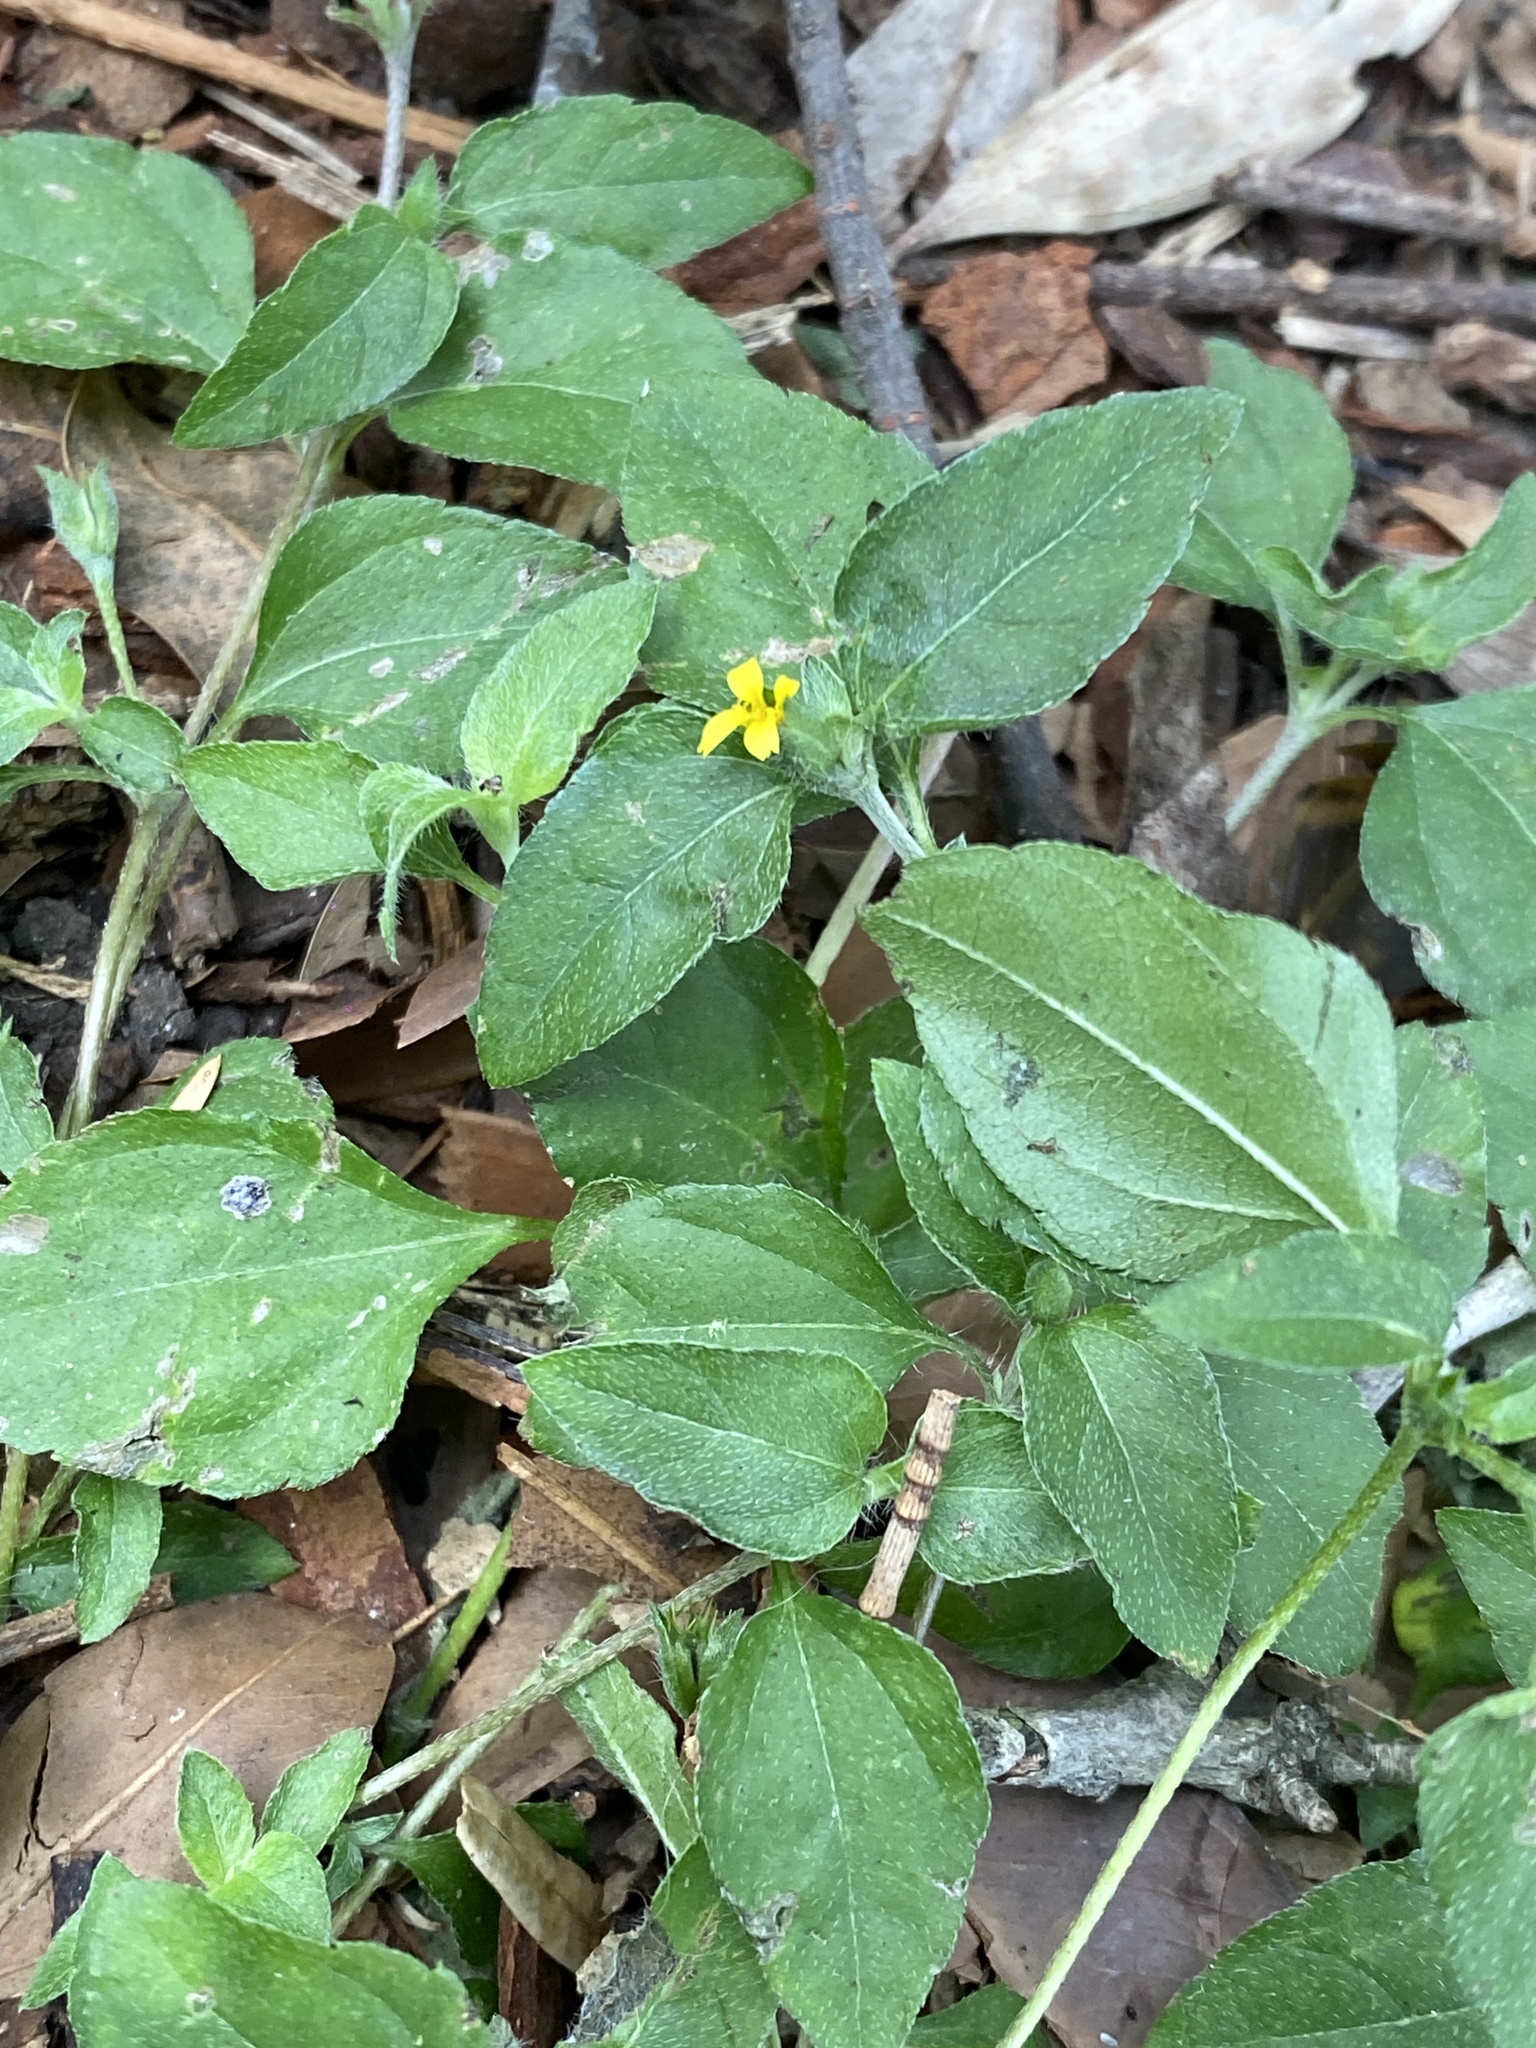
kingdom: Plantae
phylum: Tracheophyta
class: Magnoliopsida
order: Asterales
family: Asteraceae
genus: Calyptocarpus
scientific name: Calyptocarpus vialis
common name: Straggler daisy
